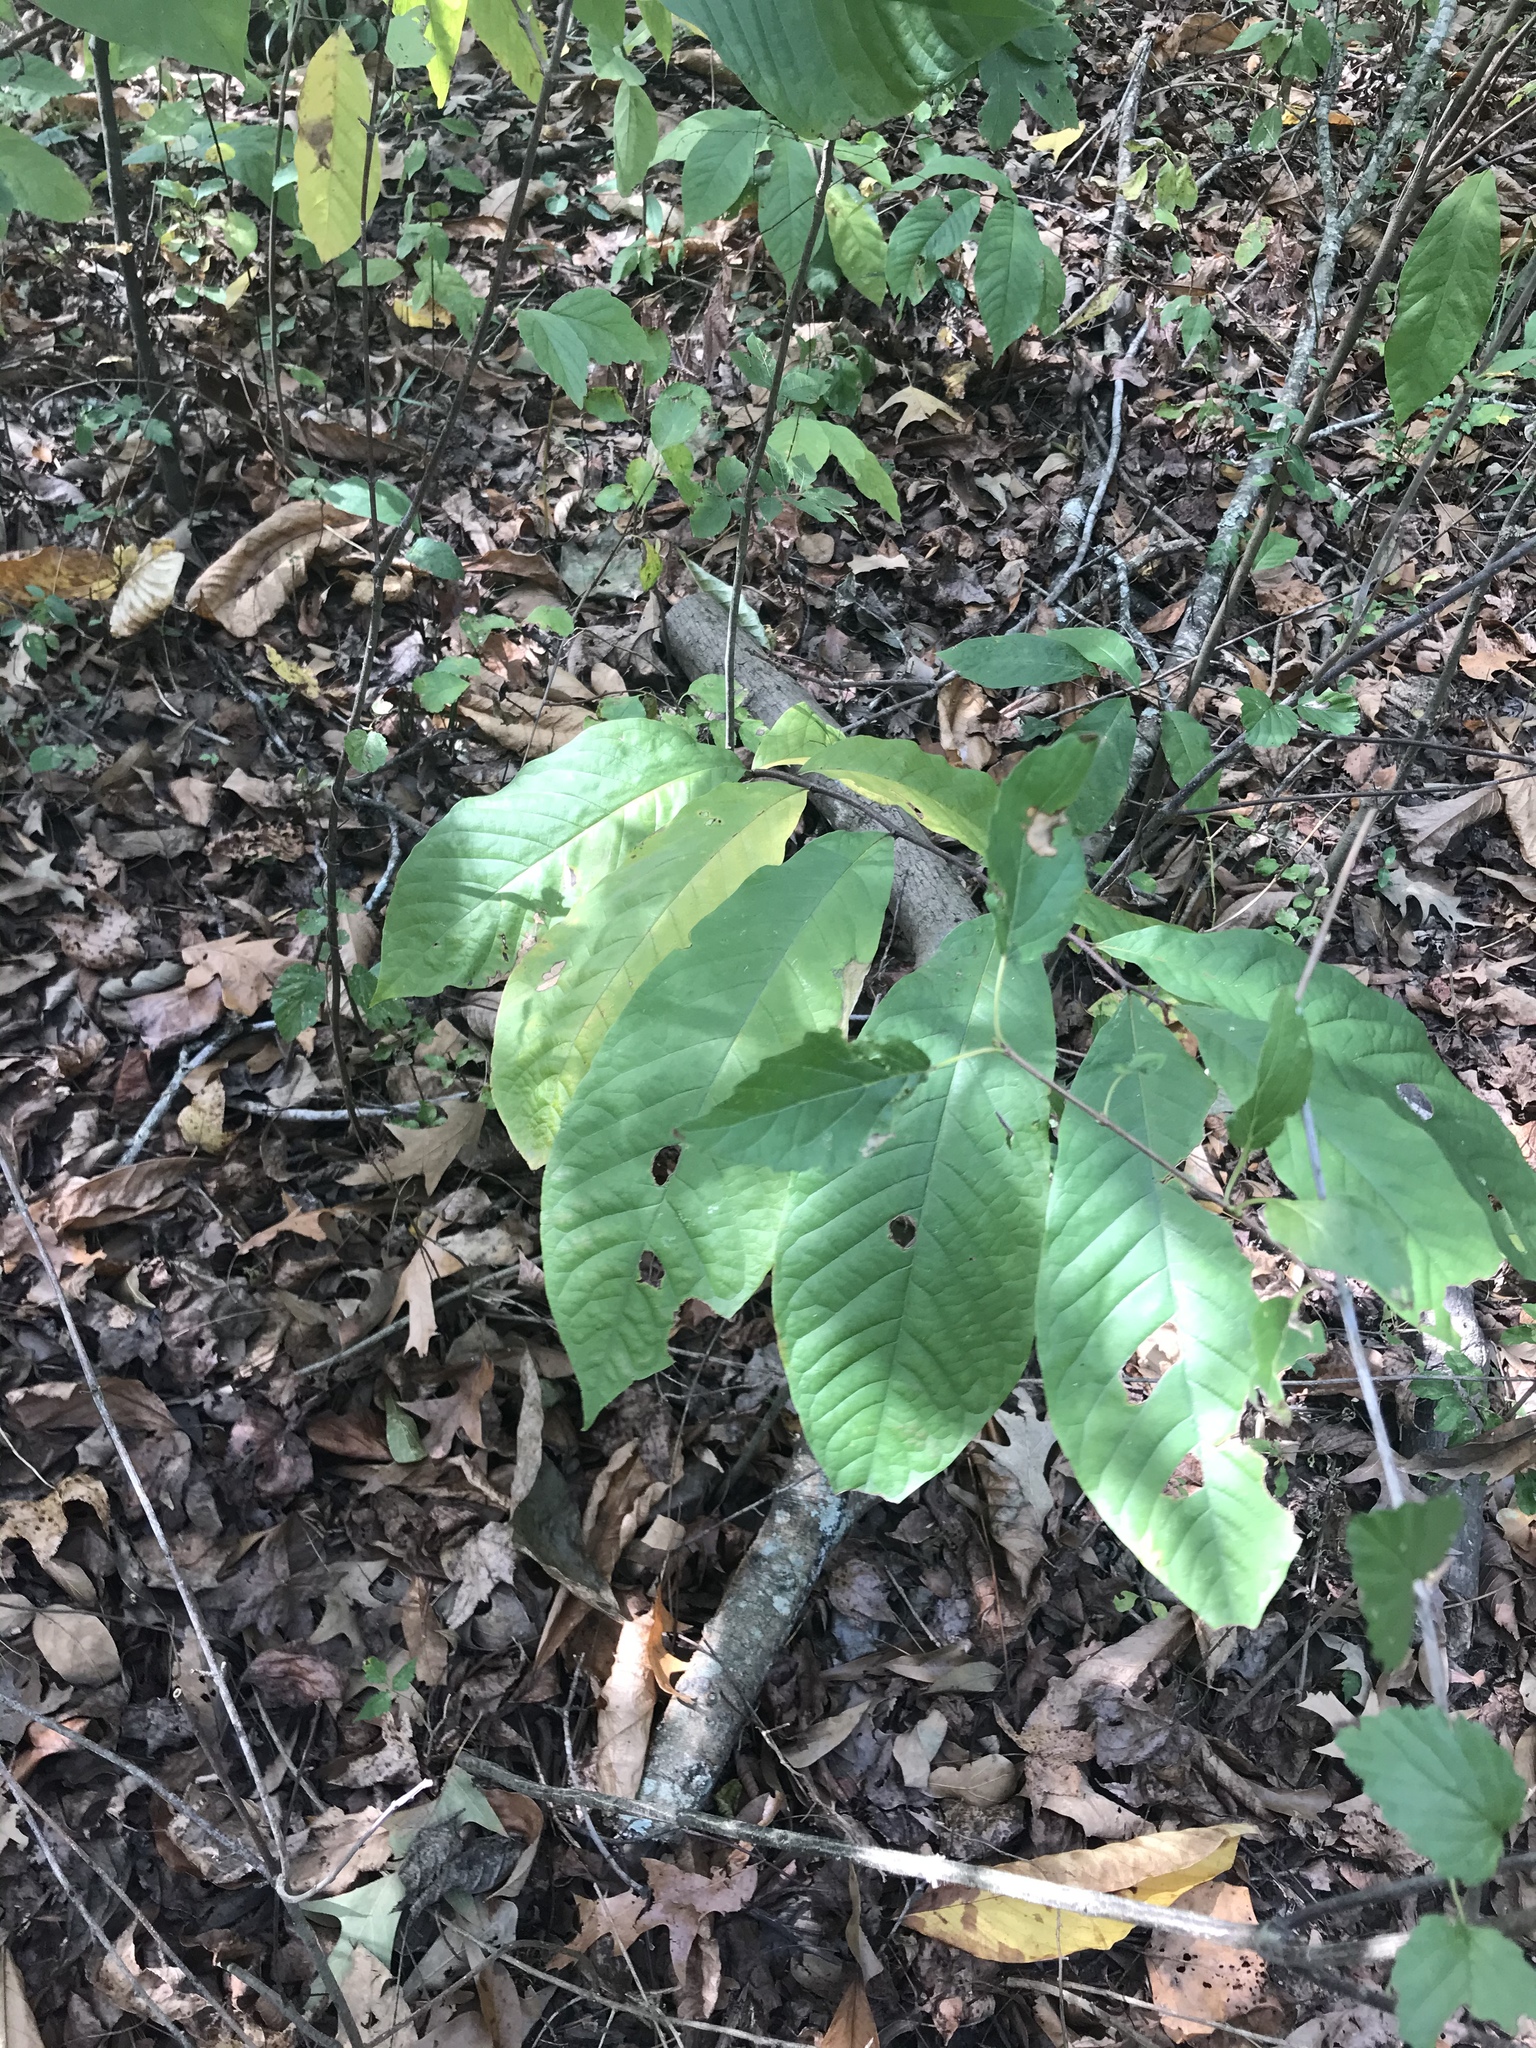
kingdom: Plantae
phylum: Tracheophyta
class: Magnoliopsida
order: Magnoliales
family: Annonaceae
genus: Asimina
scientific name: Asimina triloba
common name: Dog-banana
